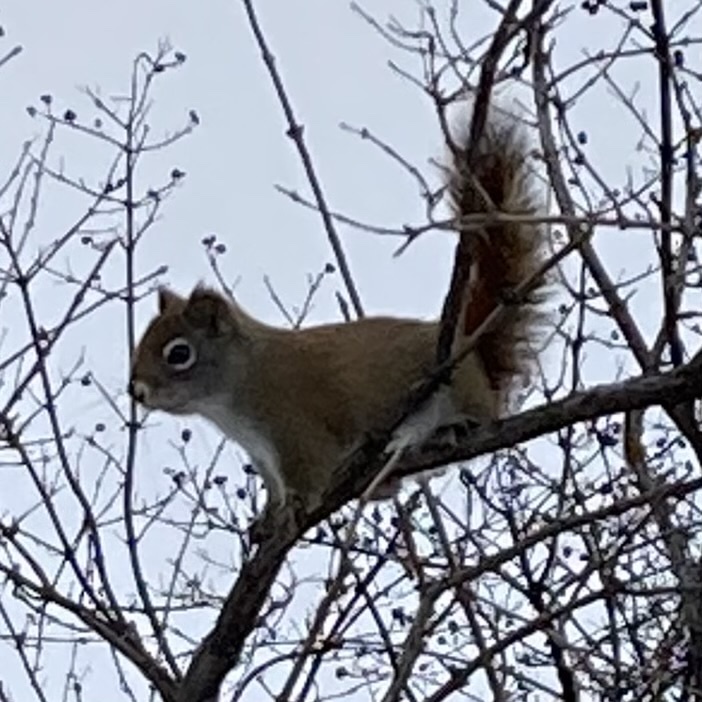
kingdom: Animalia
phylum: Chordata
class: Mammalia
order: Rodentia
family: Sciuridae
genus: Tamiasciurus
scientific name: Tamiasciurus hudsonicus
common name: Red squirrel
